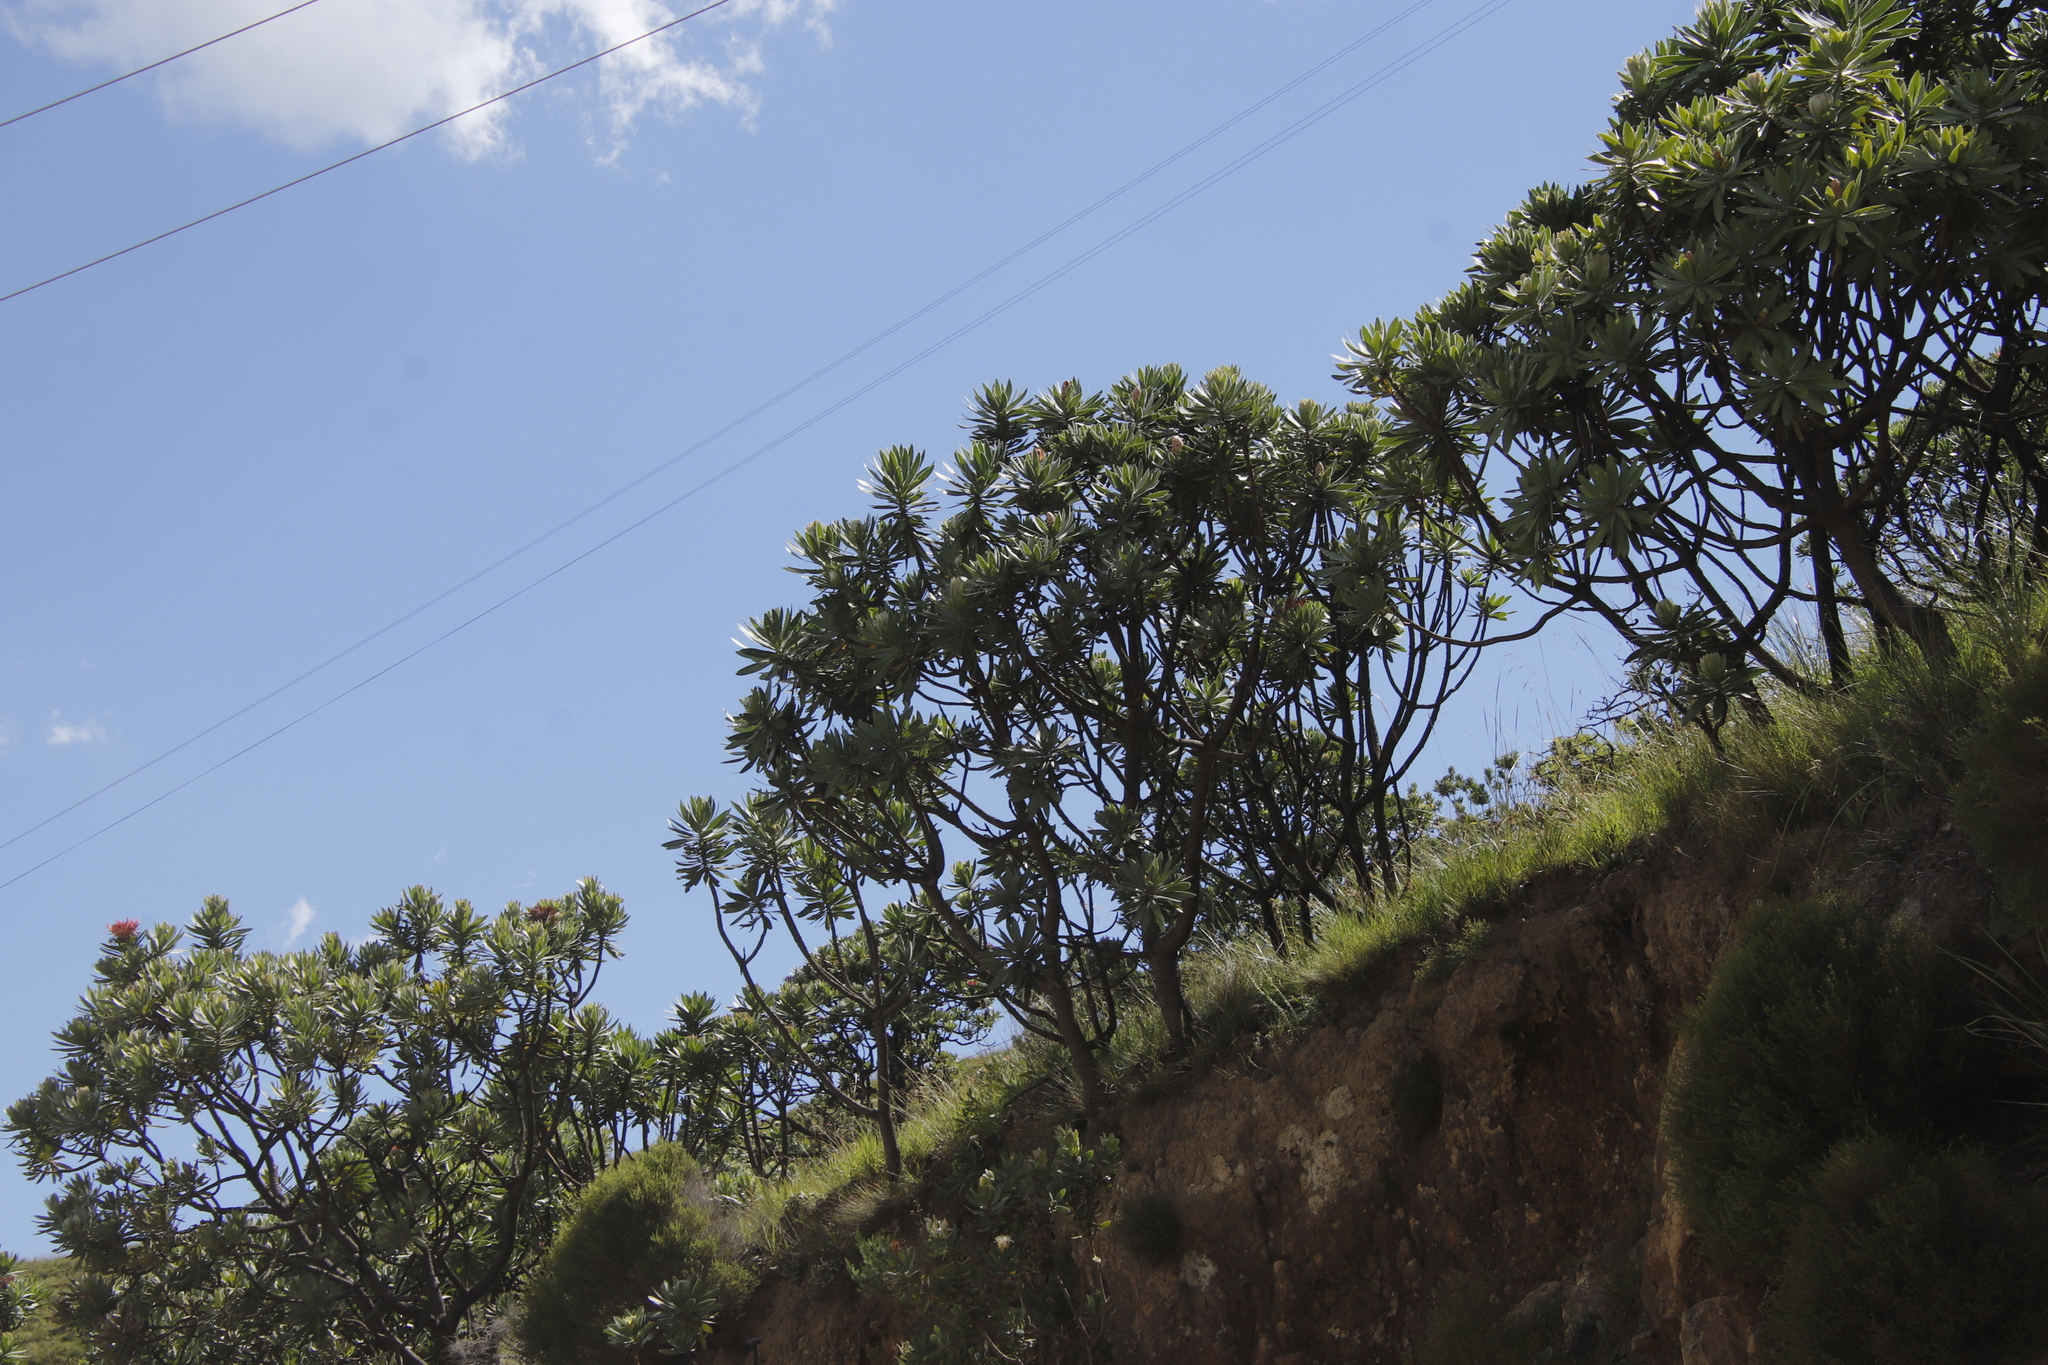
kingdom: Plantae
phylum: Tracheophyta
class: Magnoliopsida
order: Proteales
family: Proteaceae
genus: Protea
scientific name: Protea roupelliae
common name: Silver sugarbush
